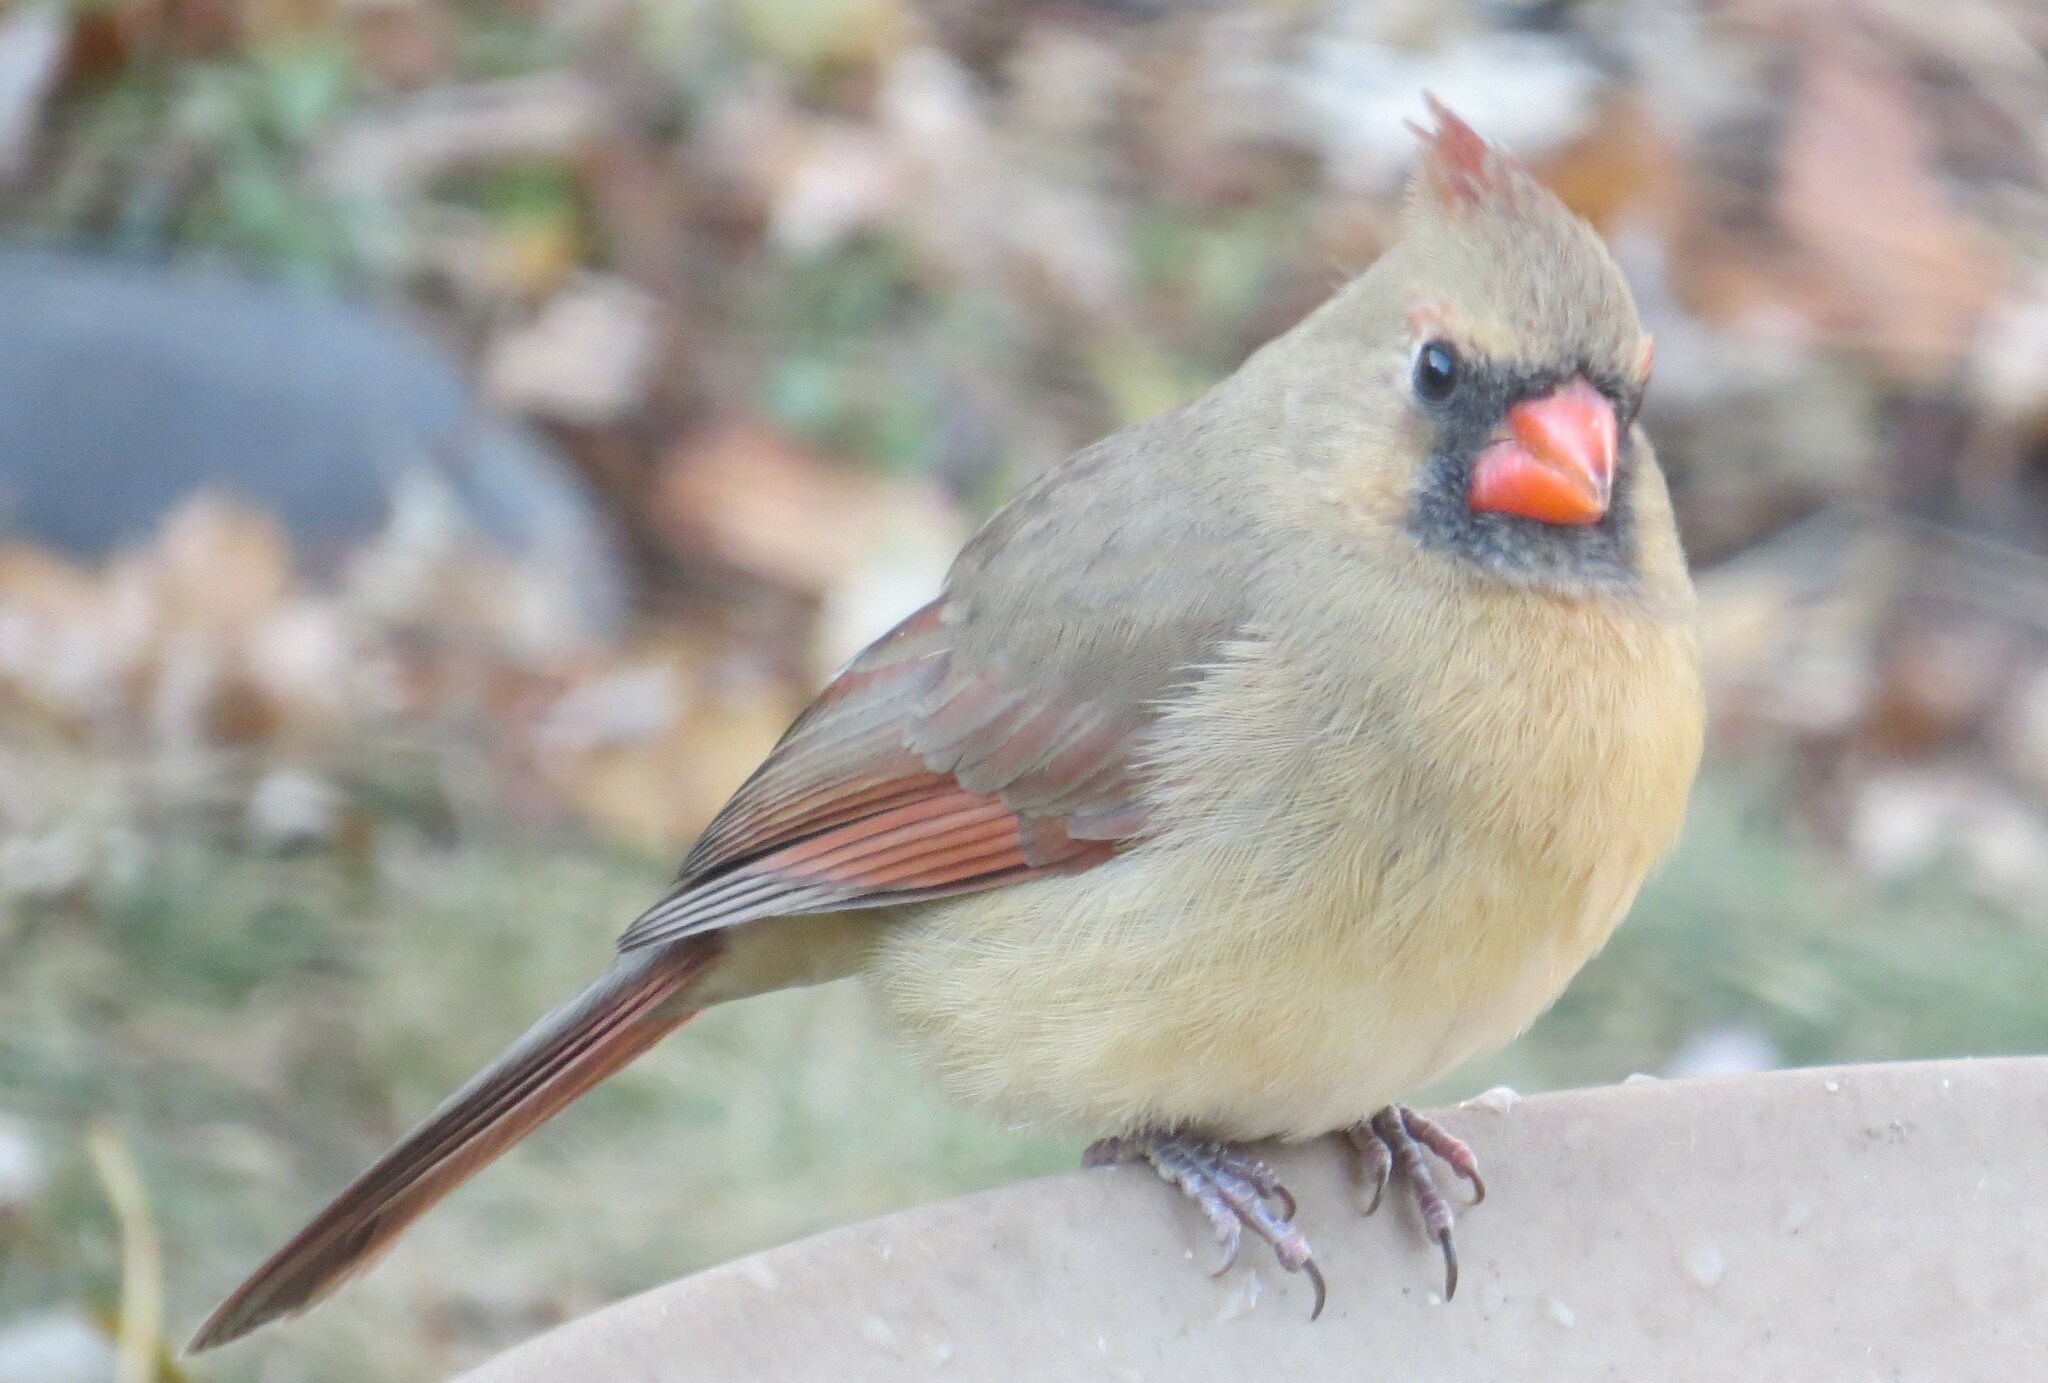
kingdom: Animalia
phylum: Chordata
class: Aves
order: Passeriformes
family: Cardinalidae
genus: Cardinalis
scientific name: Cardinalis cardinalis
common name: Northern cardinal
